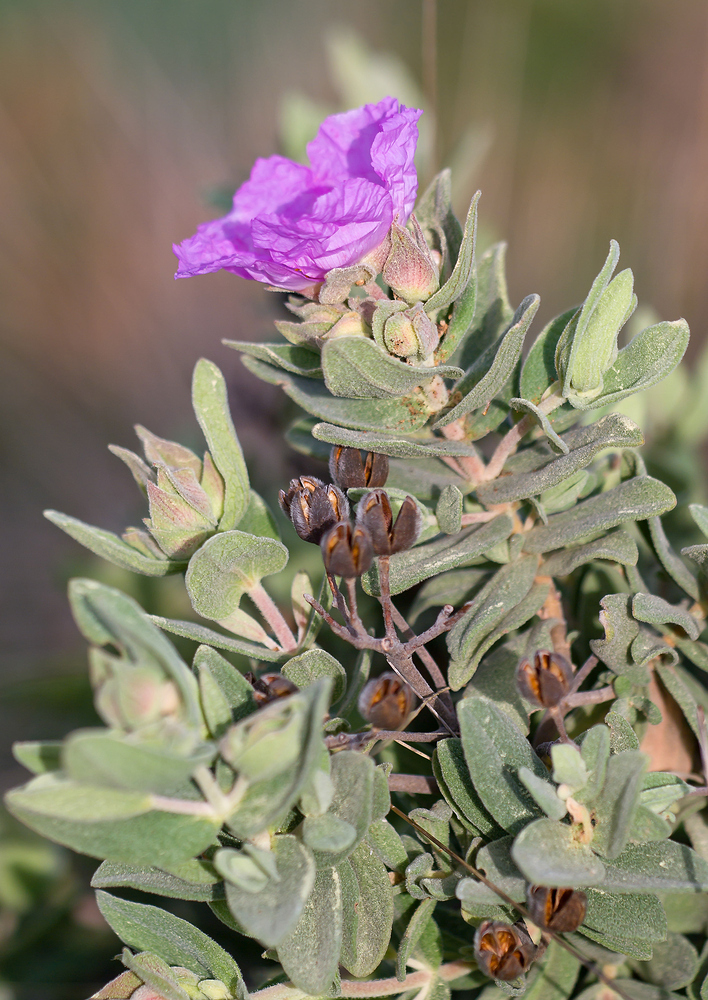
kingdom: Plantae
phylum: Tracheophyta
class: Magnoliopsida
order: Malvales
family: Cistaceae
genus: Cistus
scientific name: Cistus albidus
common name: White-leaf rock-rose
